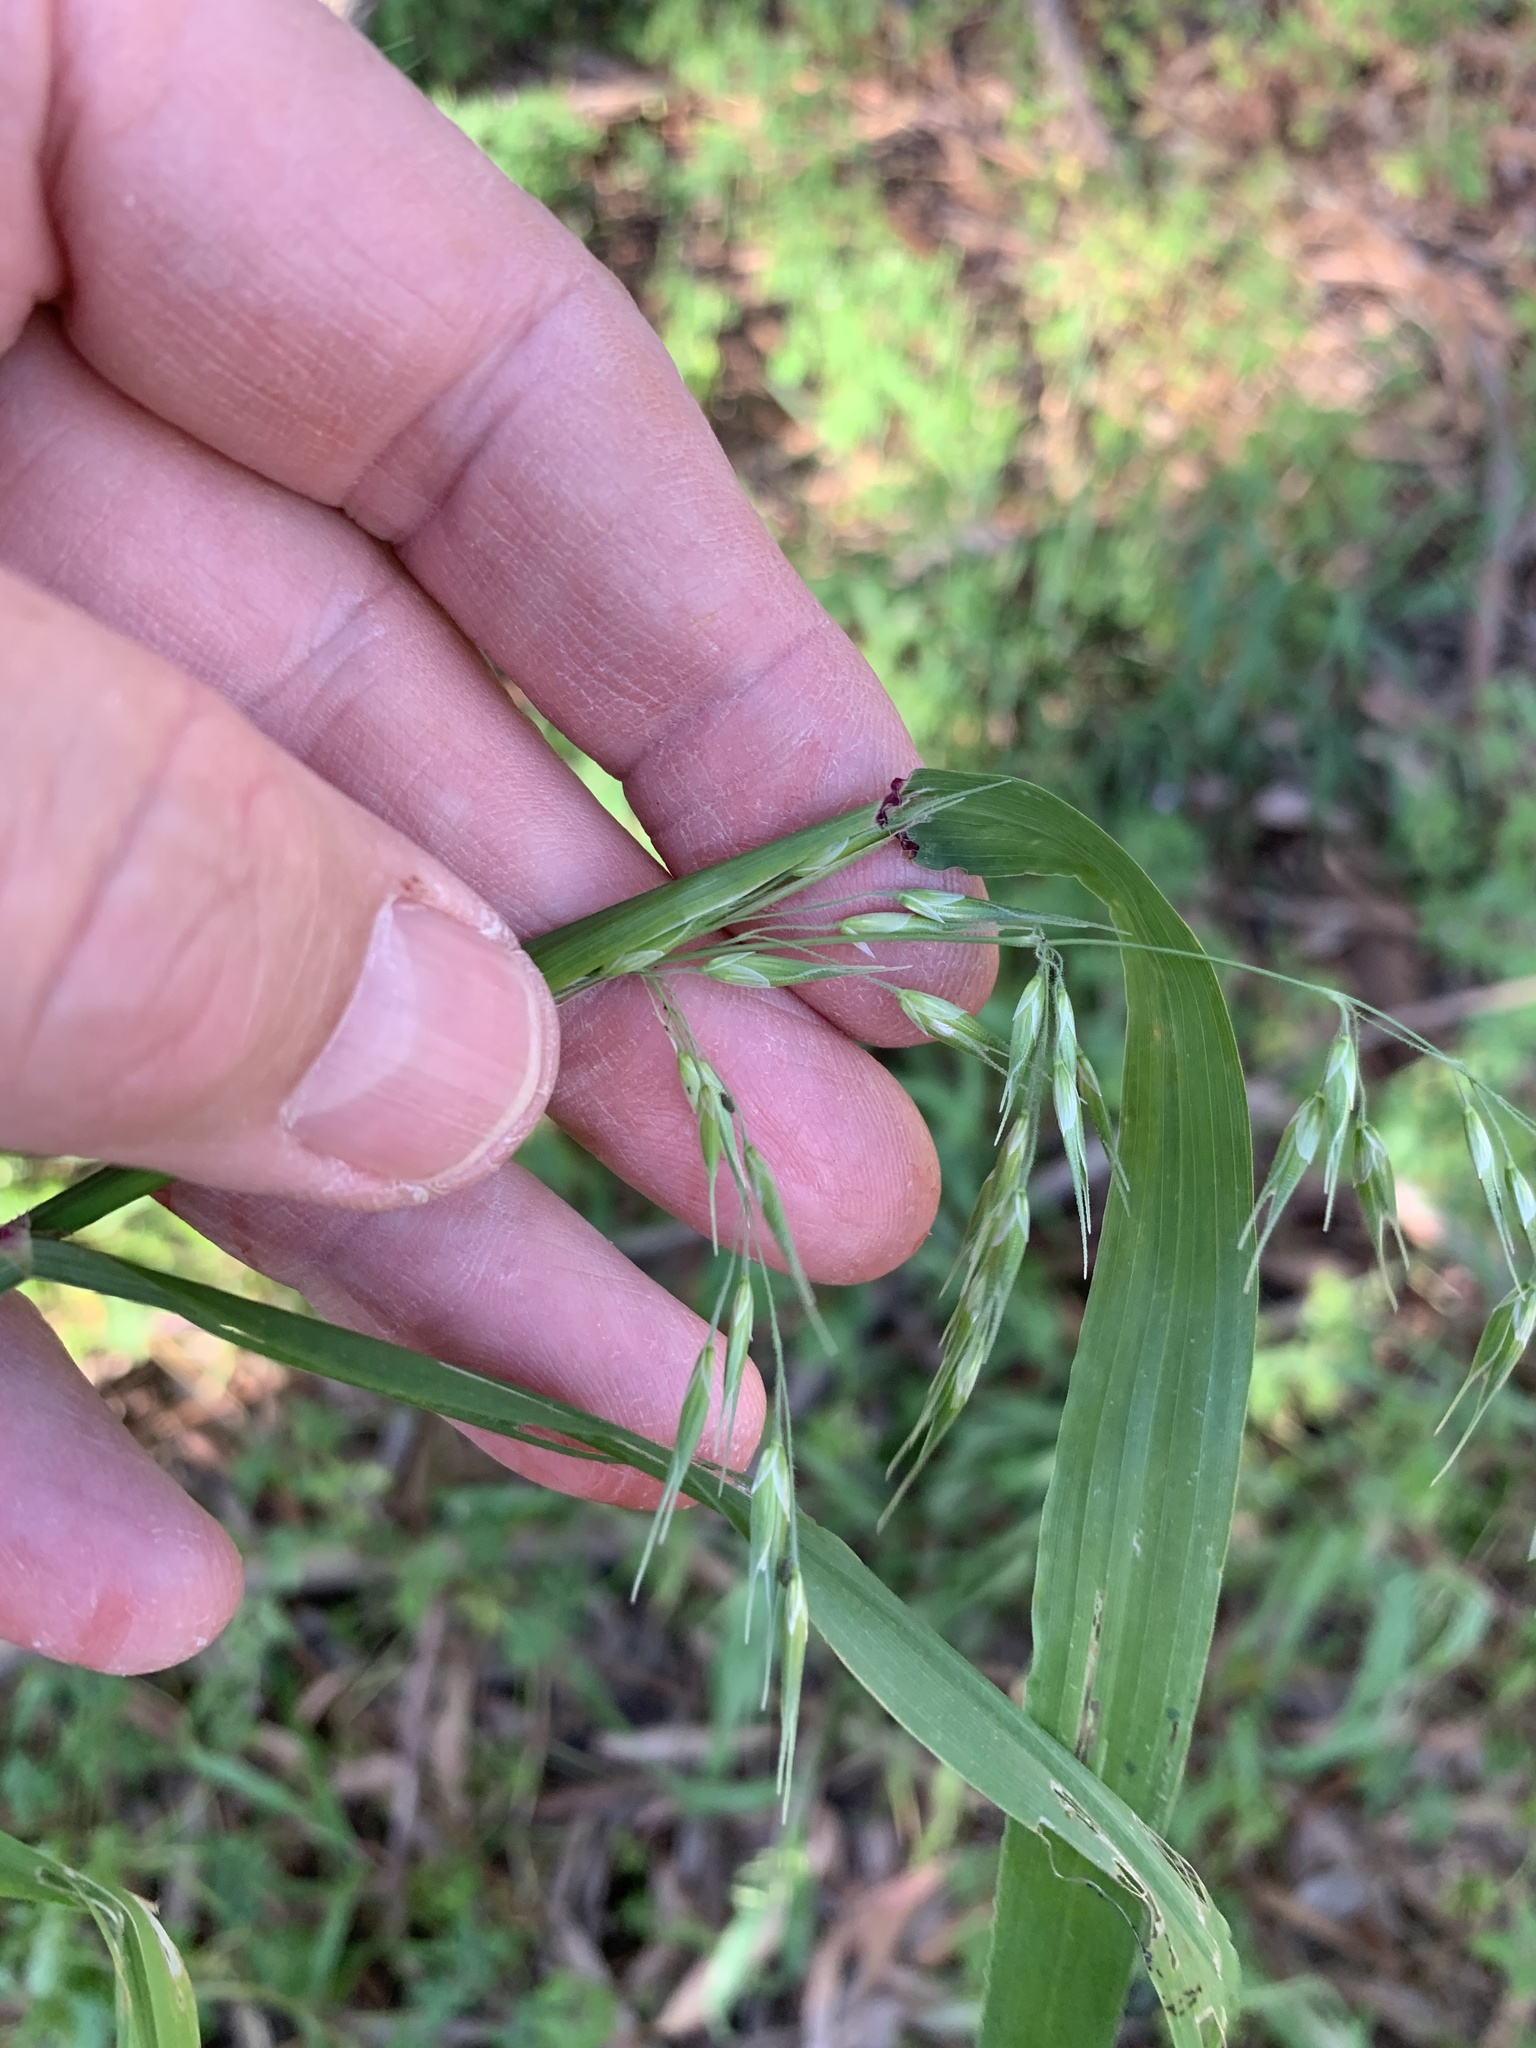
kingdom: Plantae
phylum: Tracheophyta
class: Liliopsida
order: Poales
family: Poaceae
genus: Ehrharta
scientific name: Ehrharta longiflora
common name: Longflowered veldtgrass
